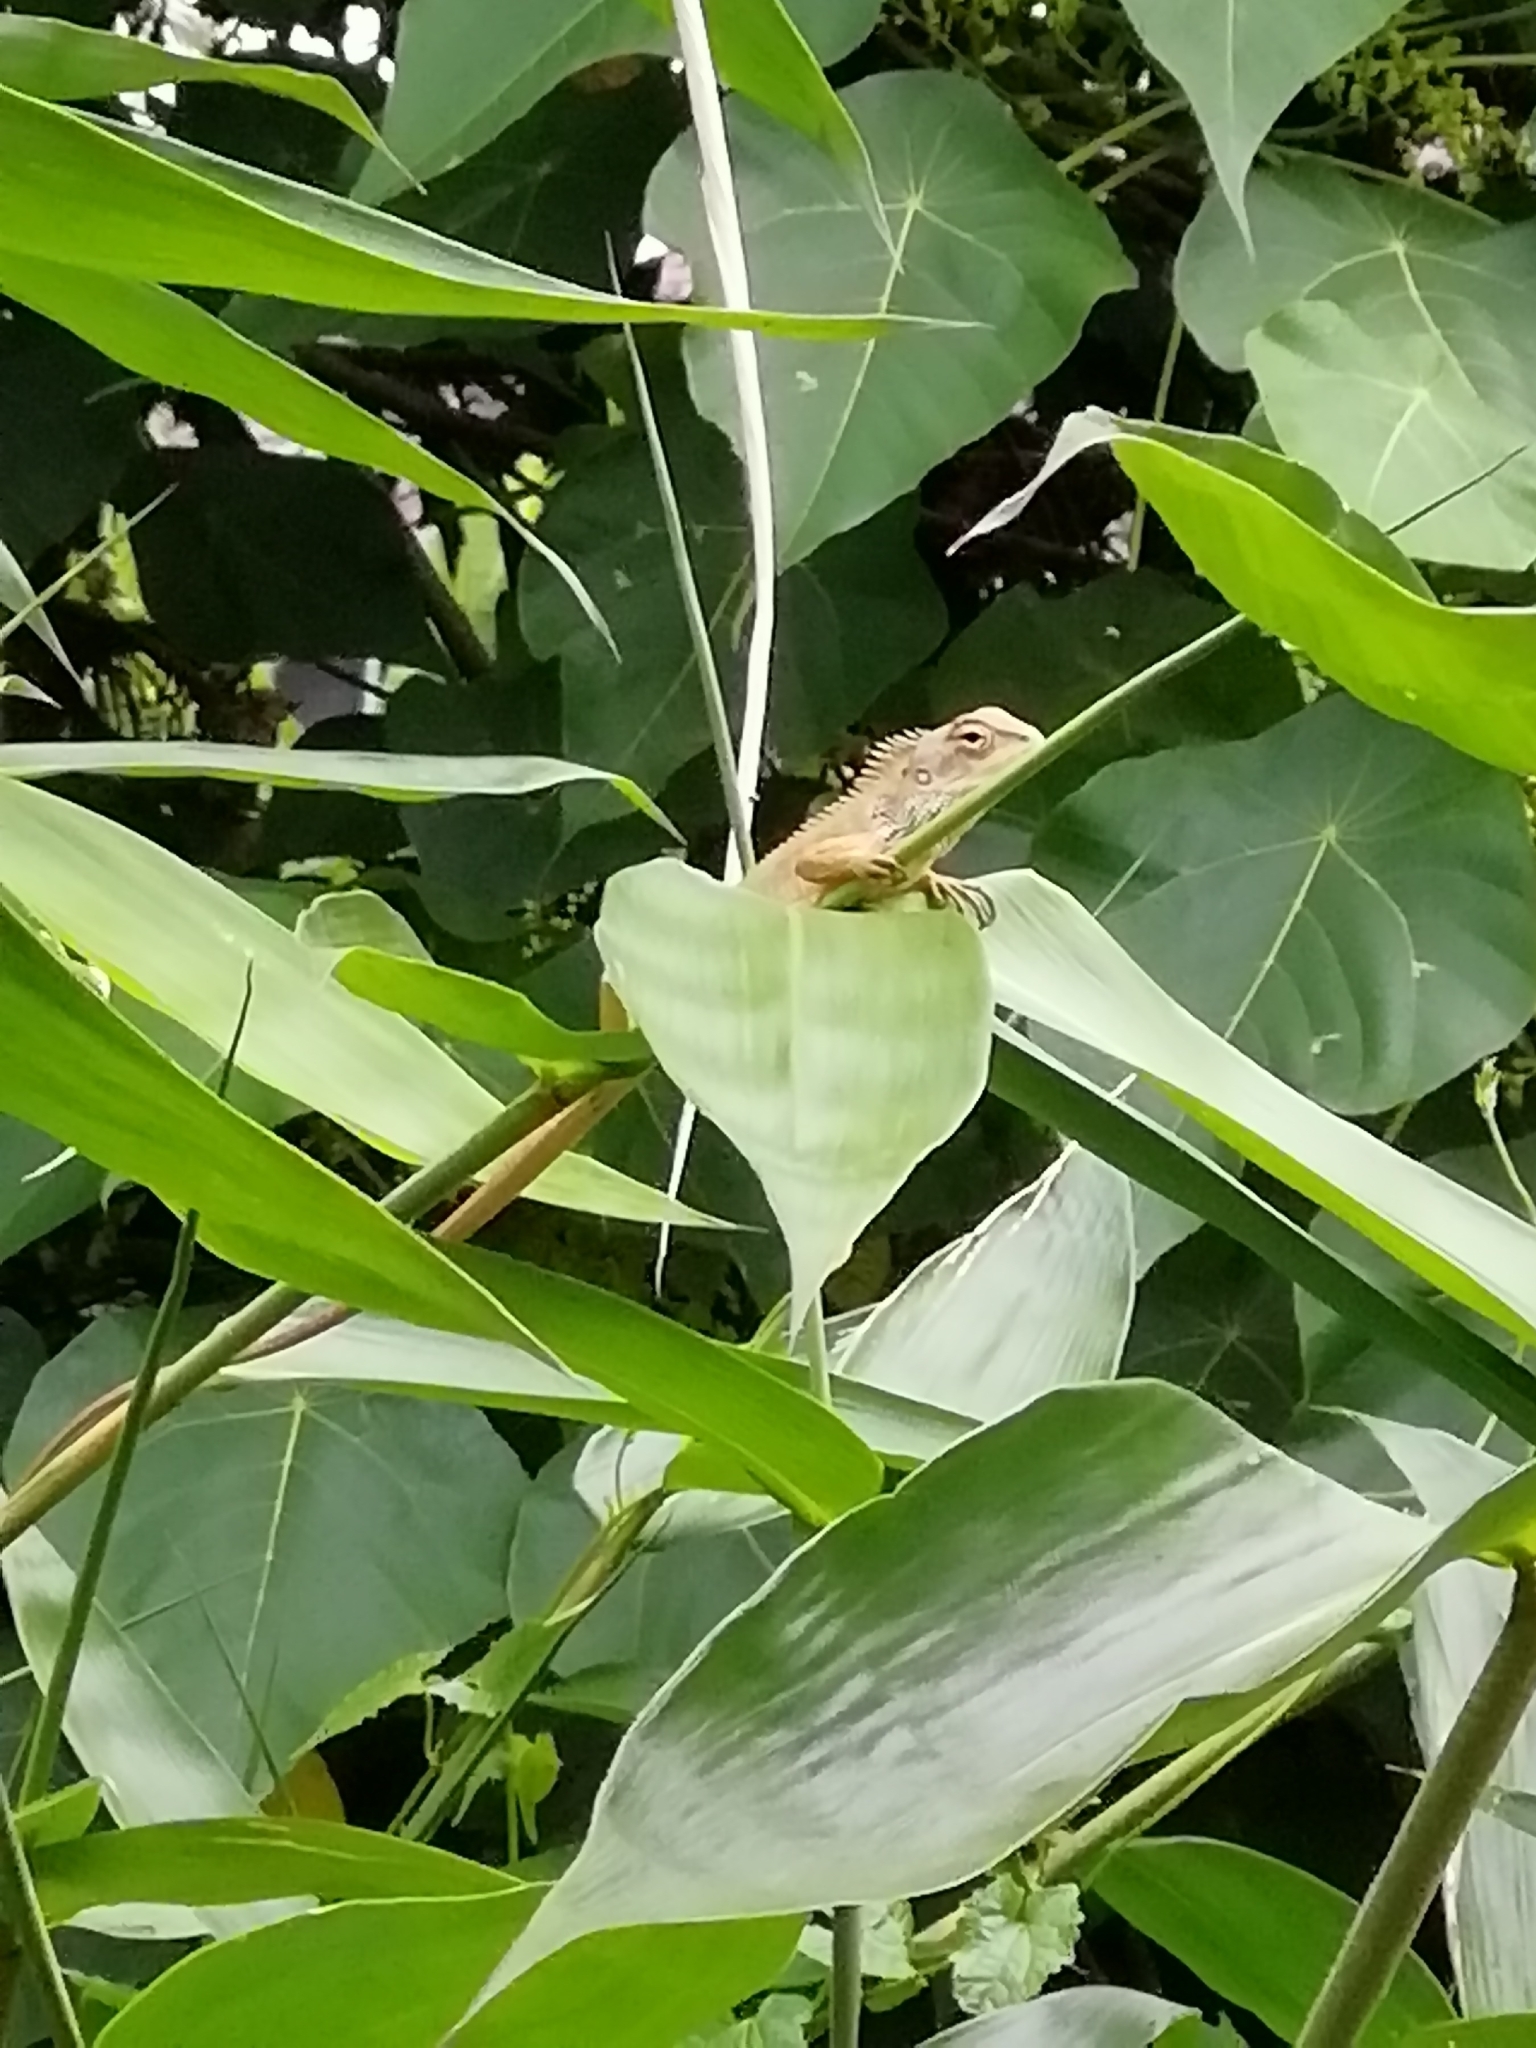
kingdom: Animalia
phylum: Chordata
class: Squamata
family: Agamidae
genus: Calotes
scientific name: Calotes versicolor
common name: Oriental garden lizard
